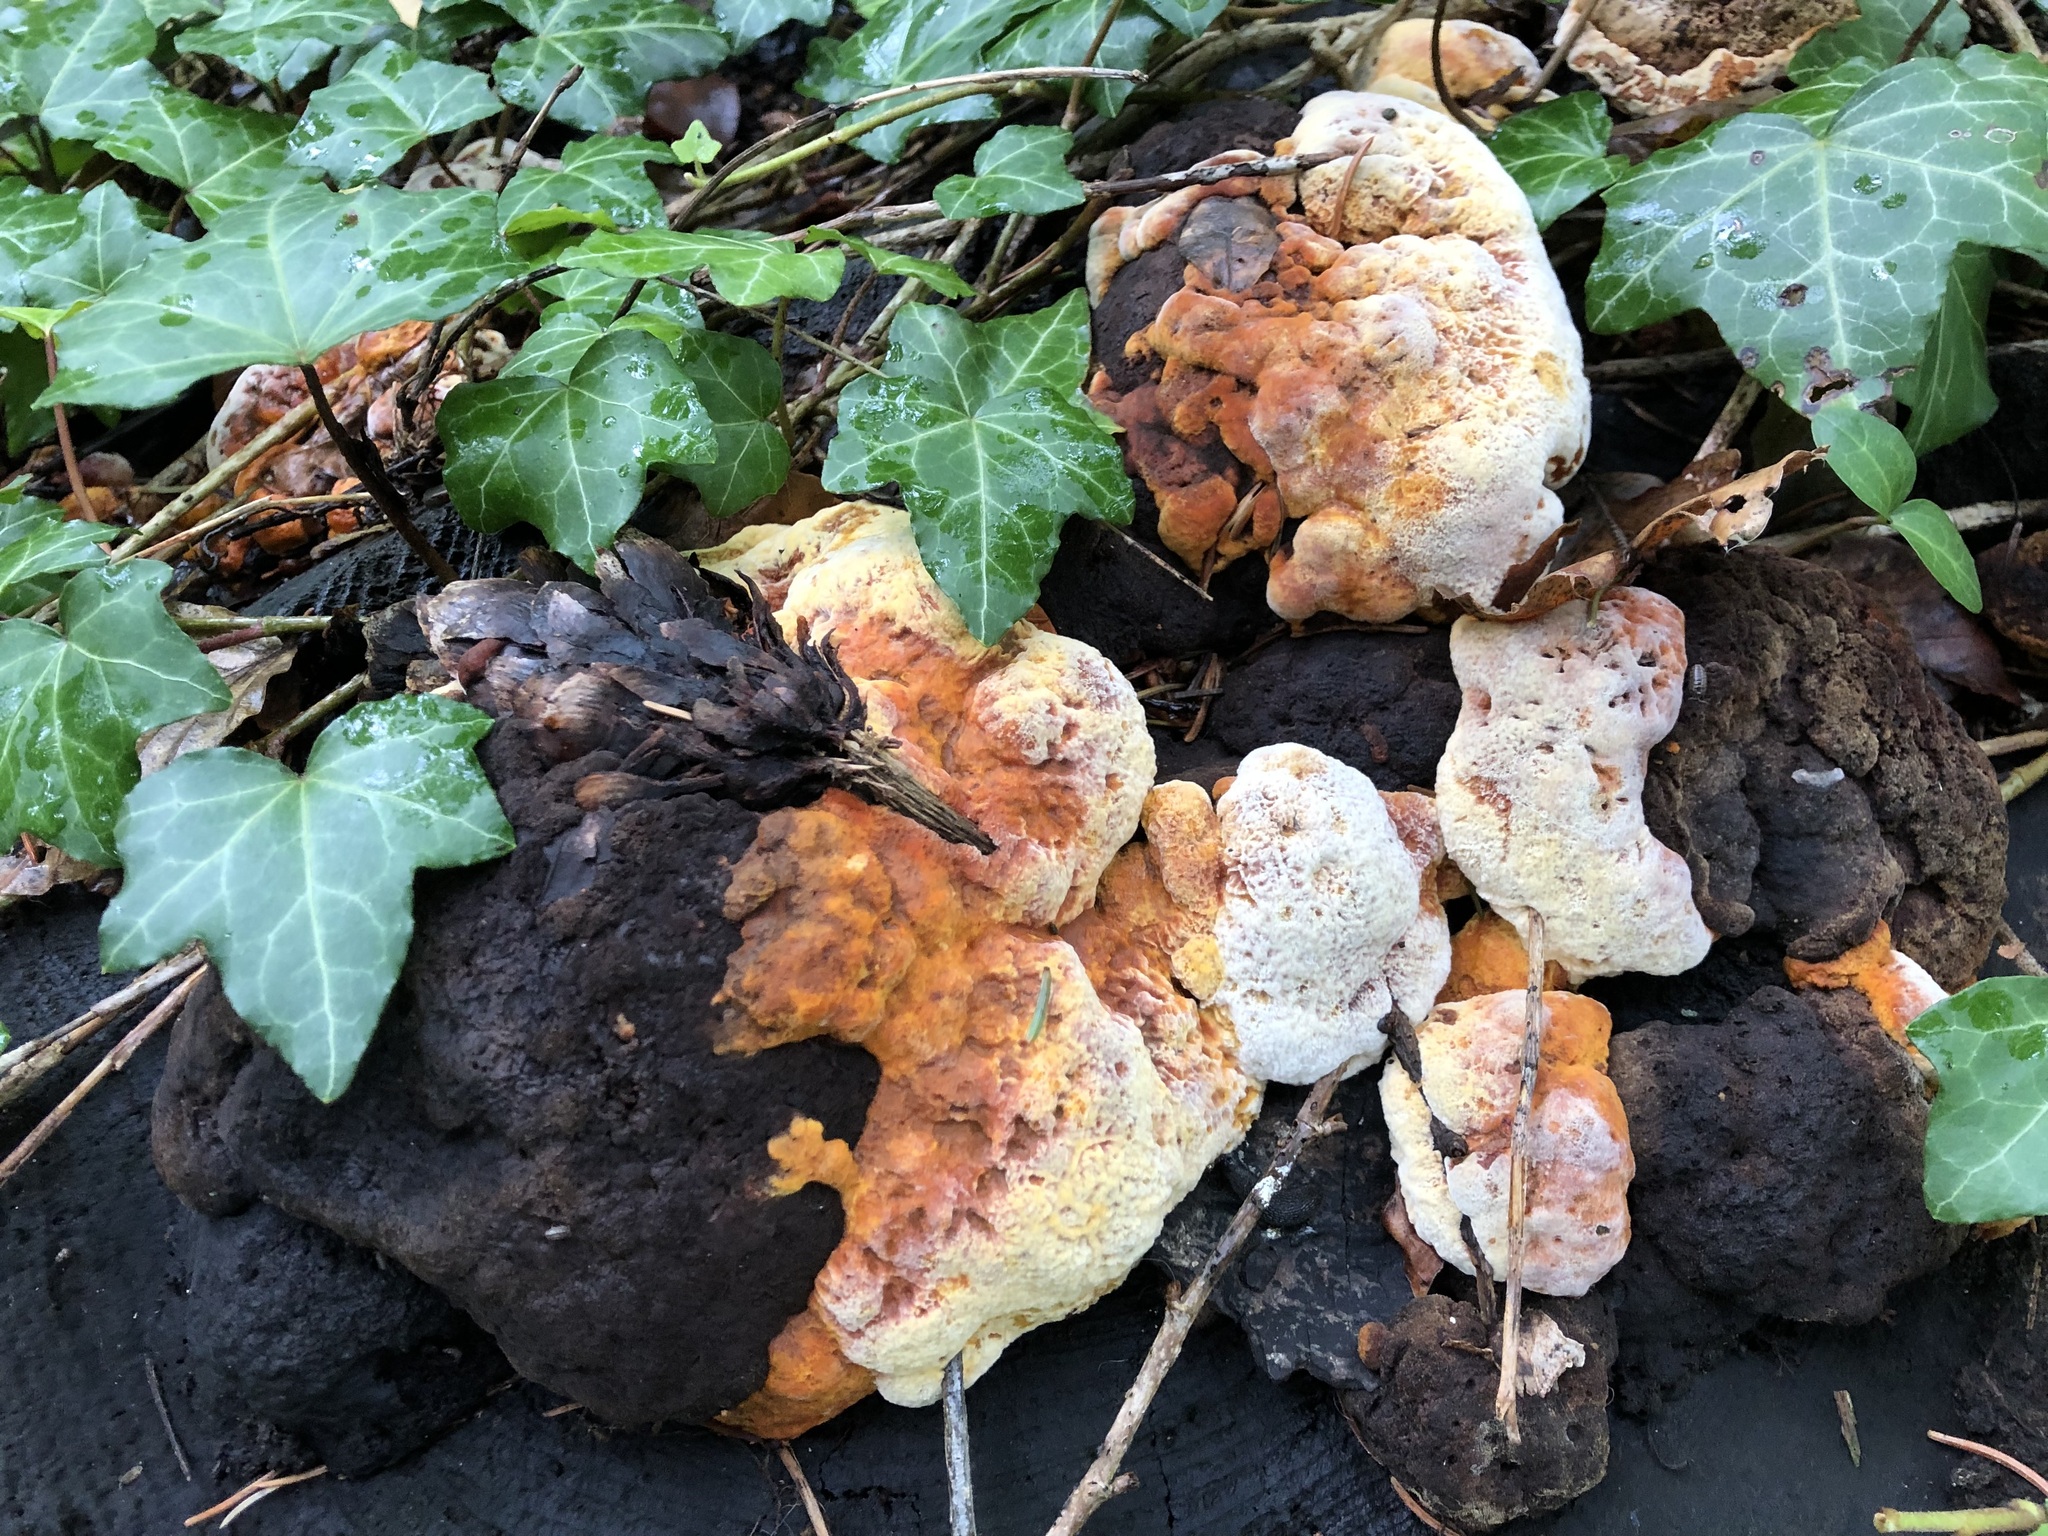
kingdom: Fungi
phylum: Basidiomycota
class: Agaricomycetes
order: Gloeophyllales
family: Gloeophyllaceae
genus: Gloeophyllum
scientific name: Gloeophyllum odoratum
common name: Anise mazegill
